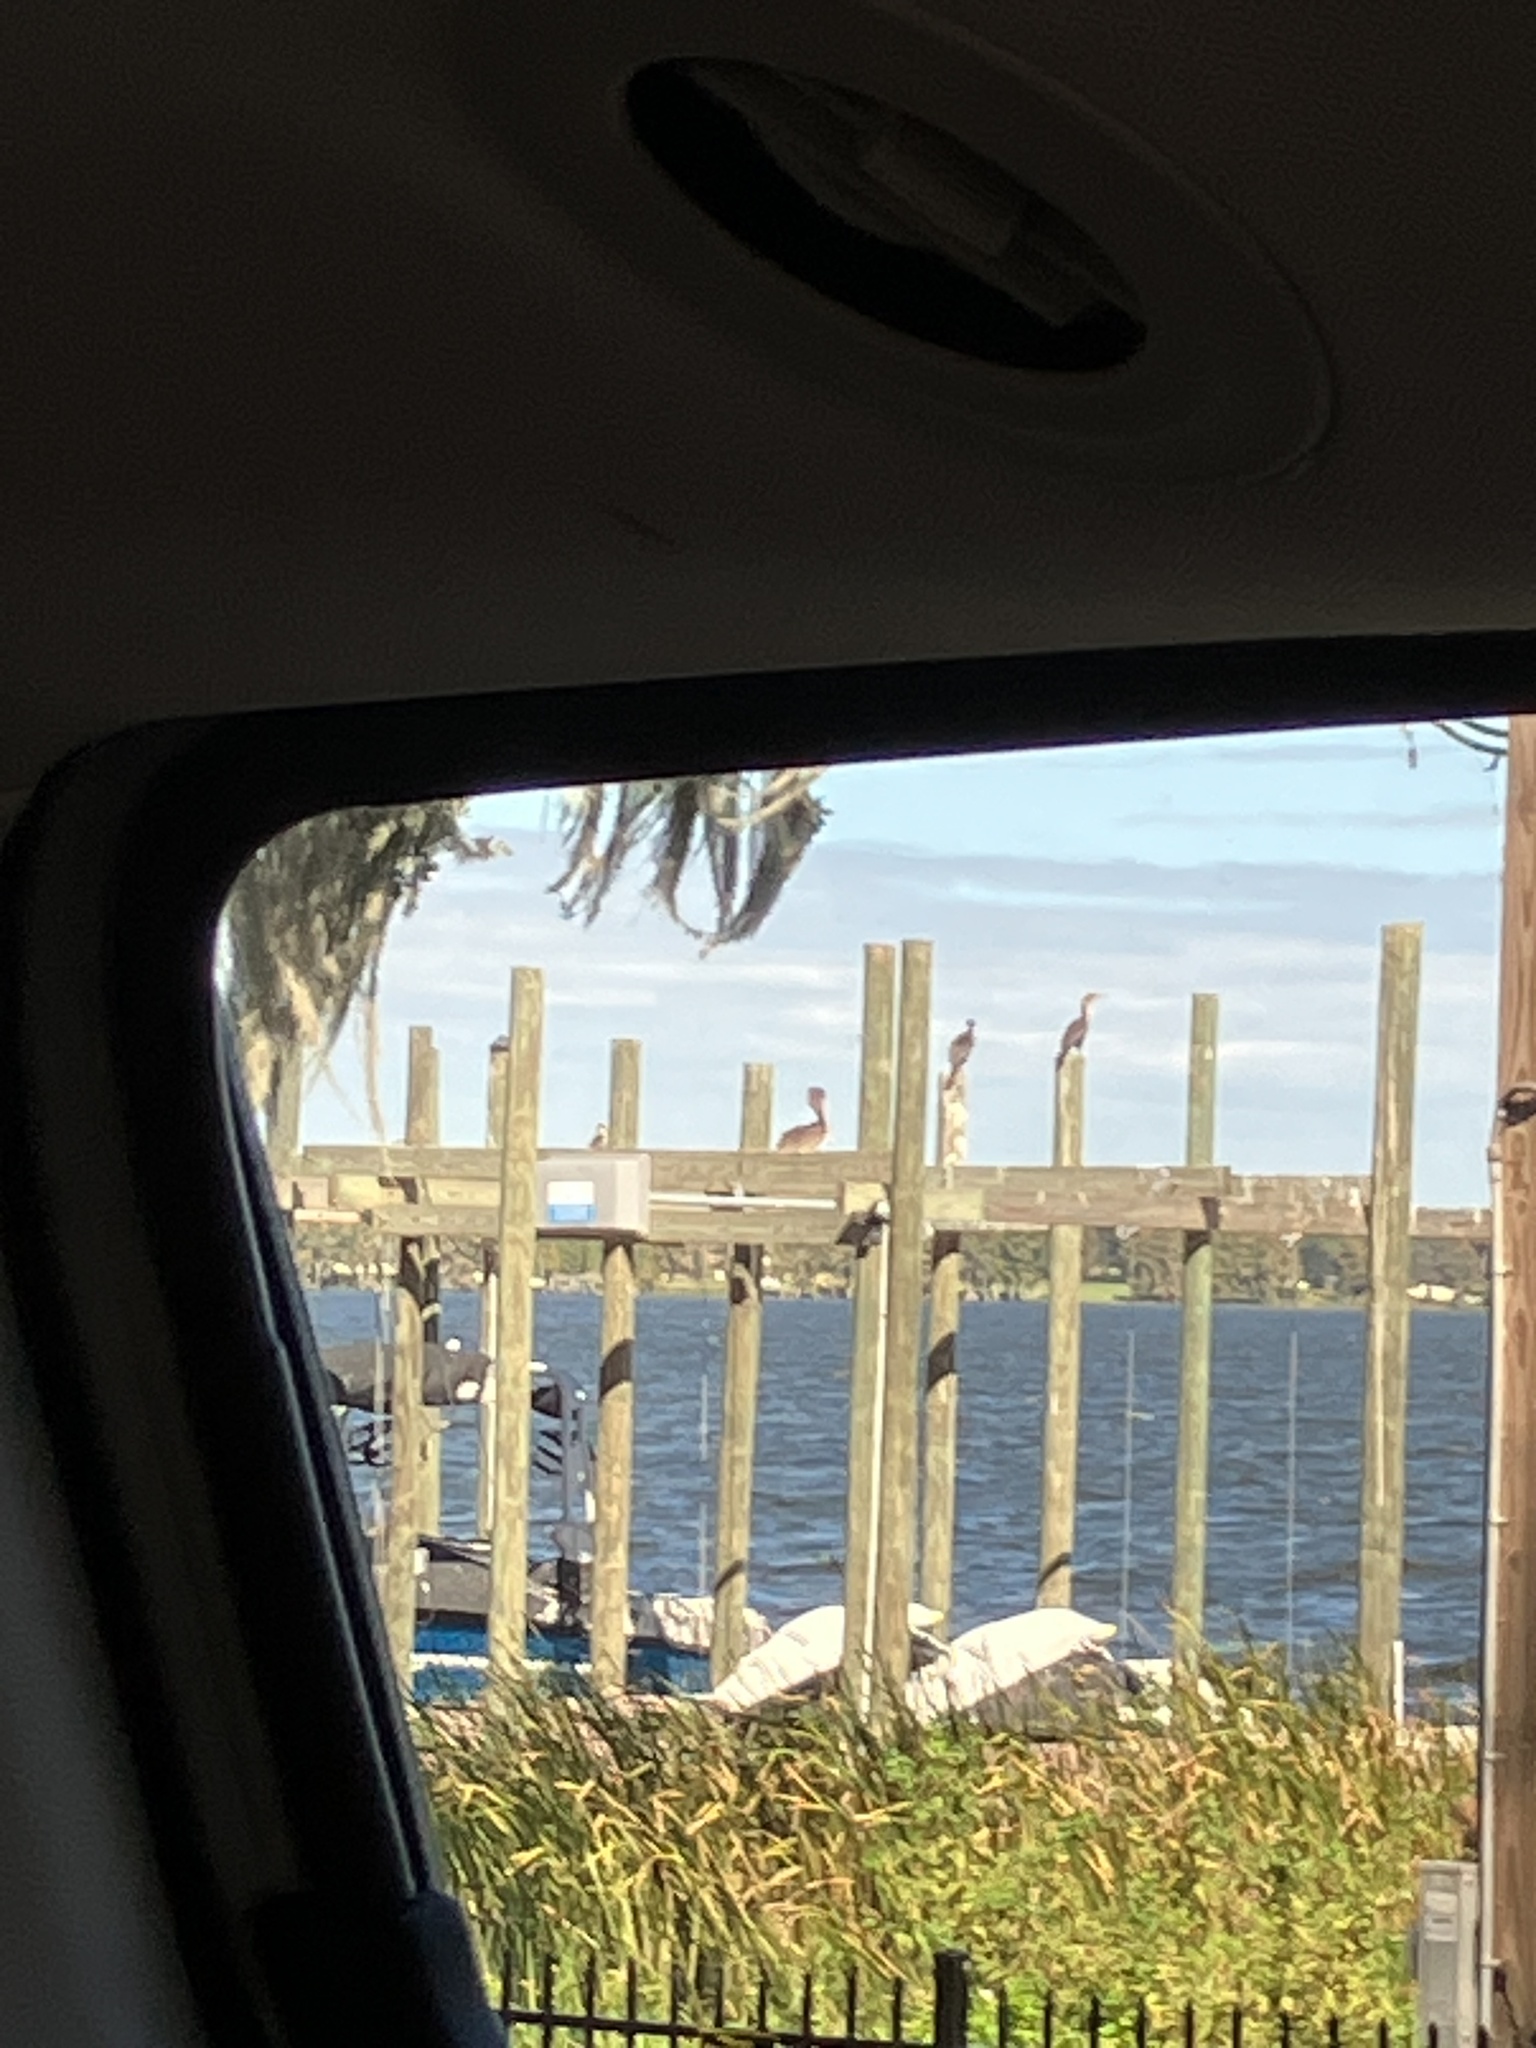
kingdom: Animalia
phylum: Chordata
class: Aves
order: Pelecaniformes
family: Pelecanidae
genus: Pelecanus
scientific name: Pelecanus occidentalis
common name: Brown pelican
